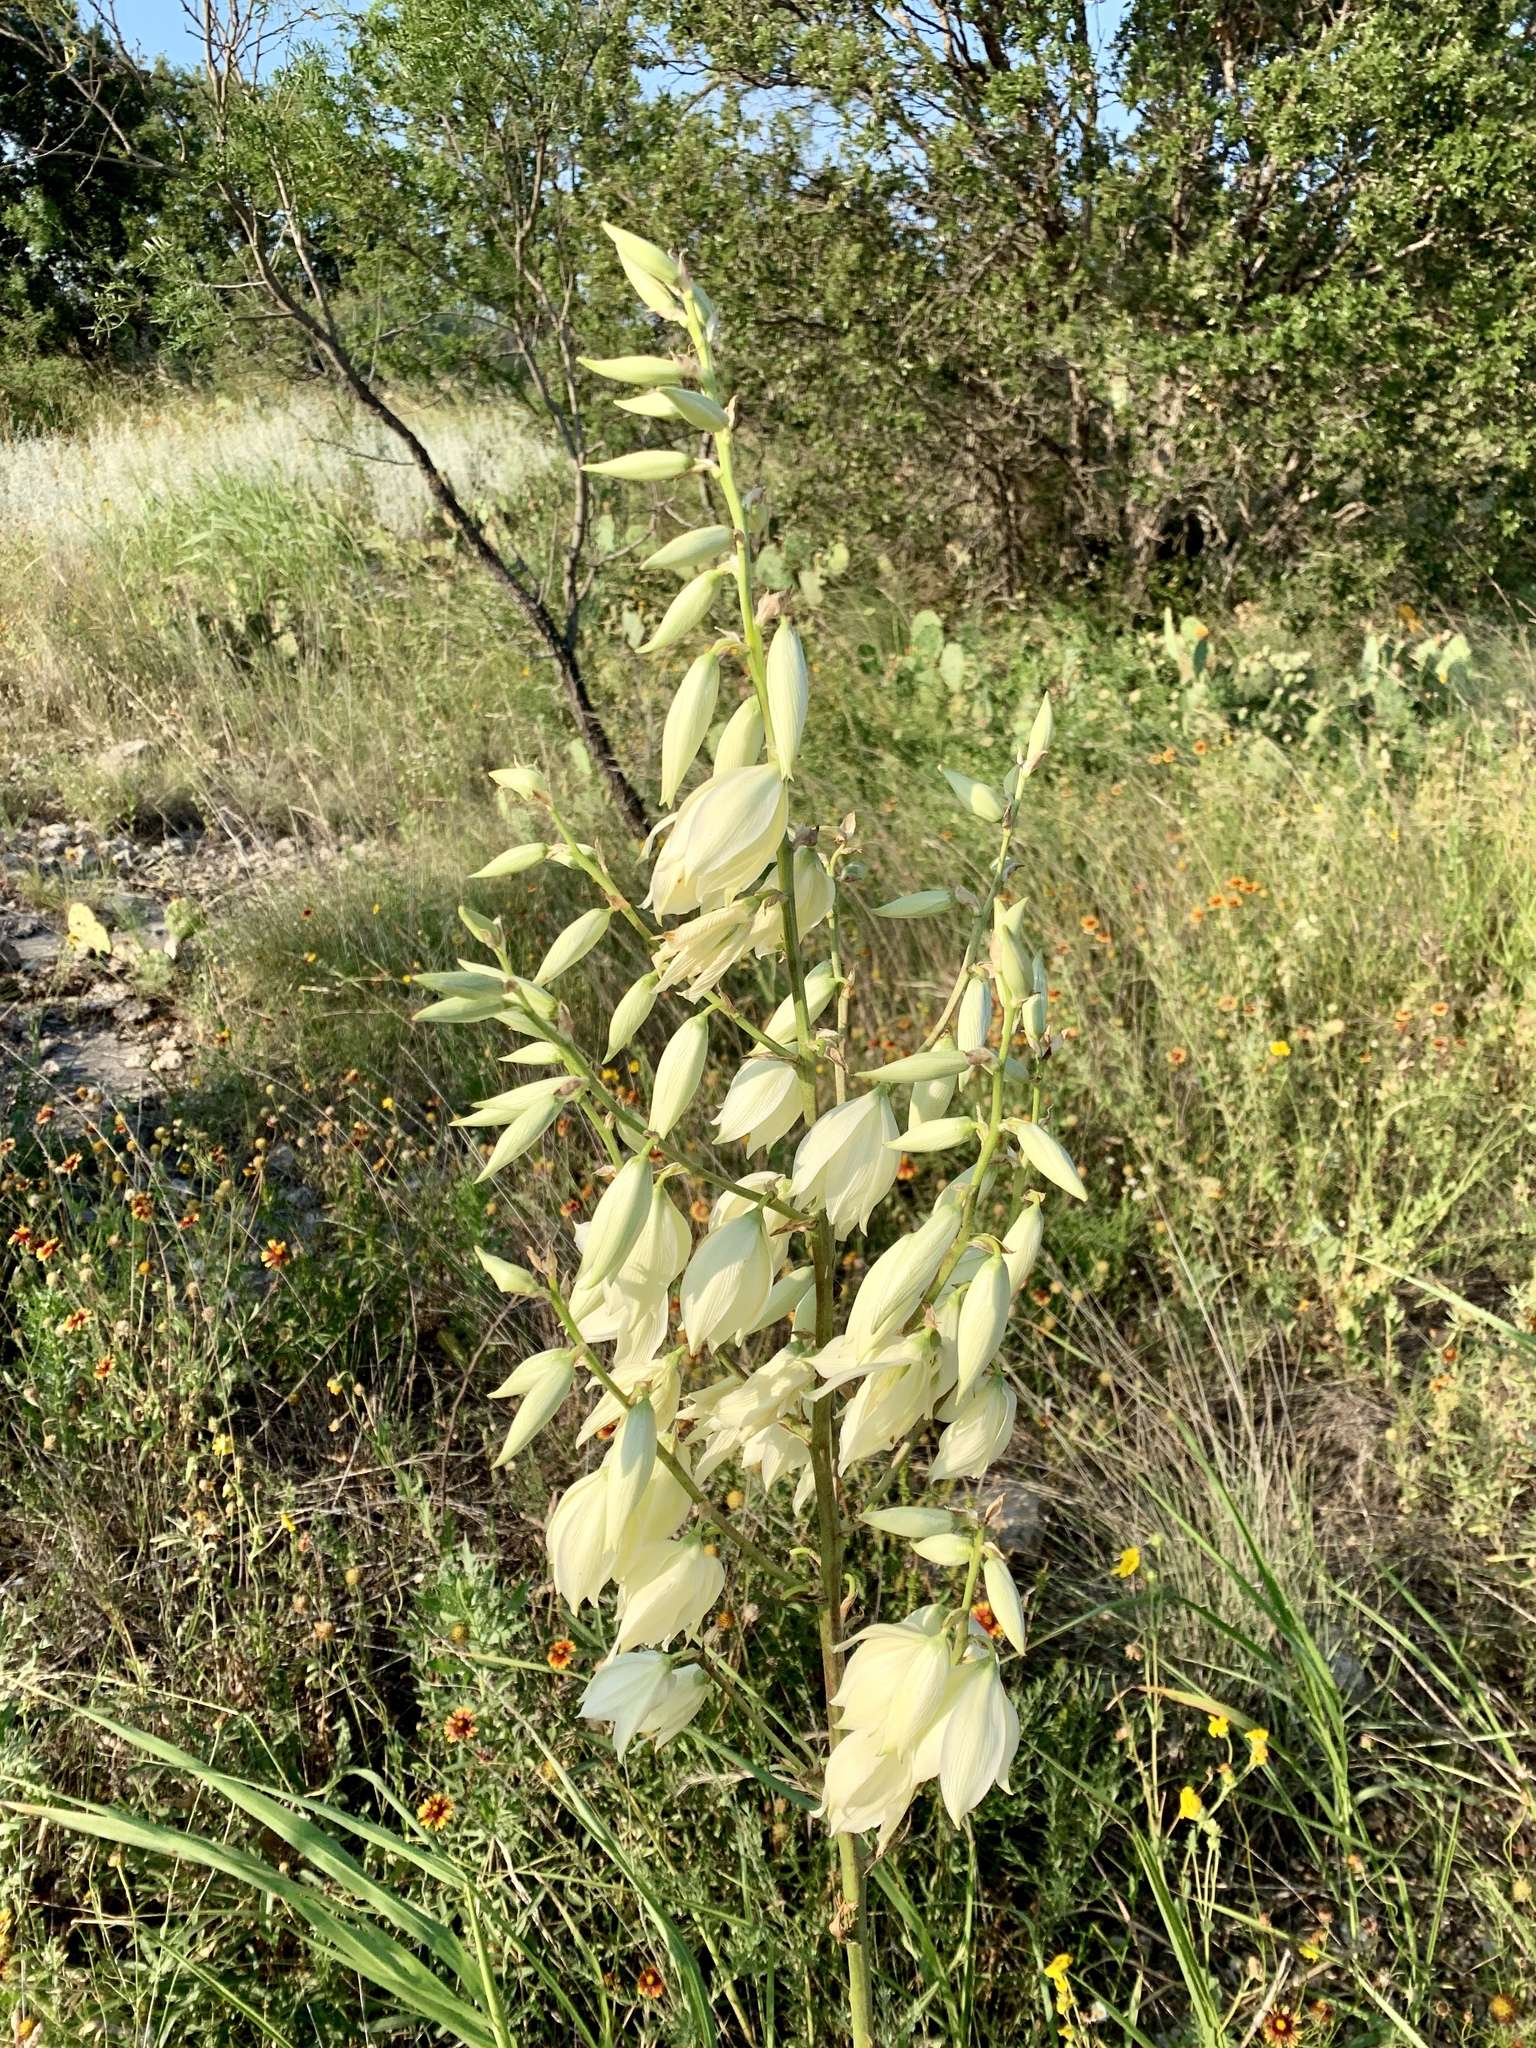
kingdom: Plantae
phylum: Tracheophyta
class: Liliopsida
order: Asparagales
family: Asparagaceae
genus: Yucca
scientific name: Yucca reverchonii
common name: San angelo yucca
